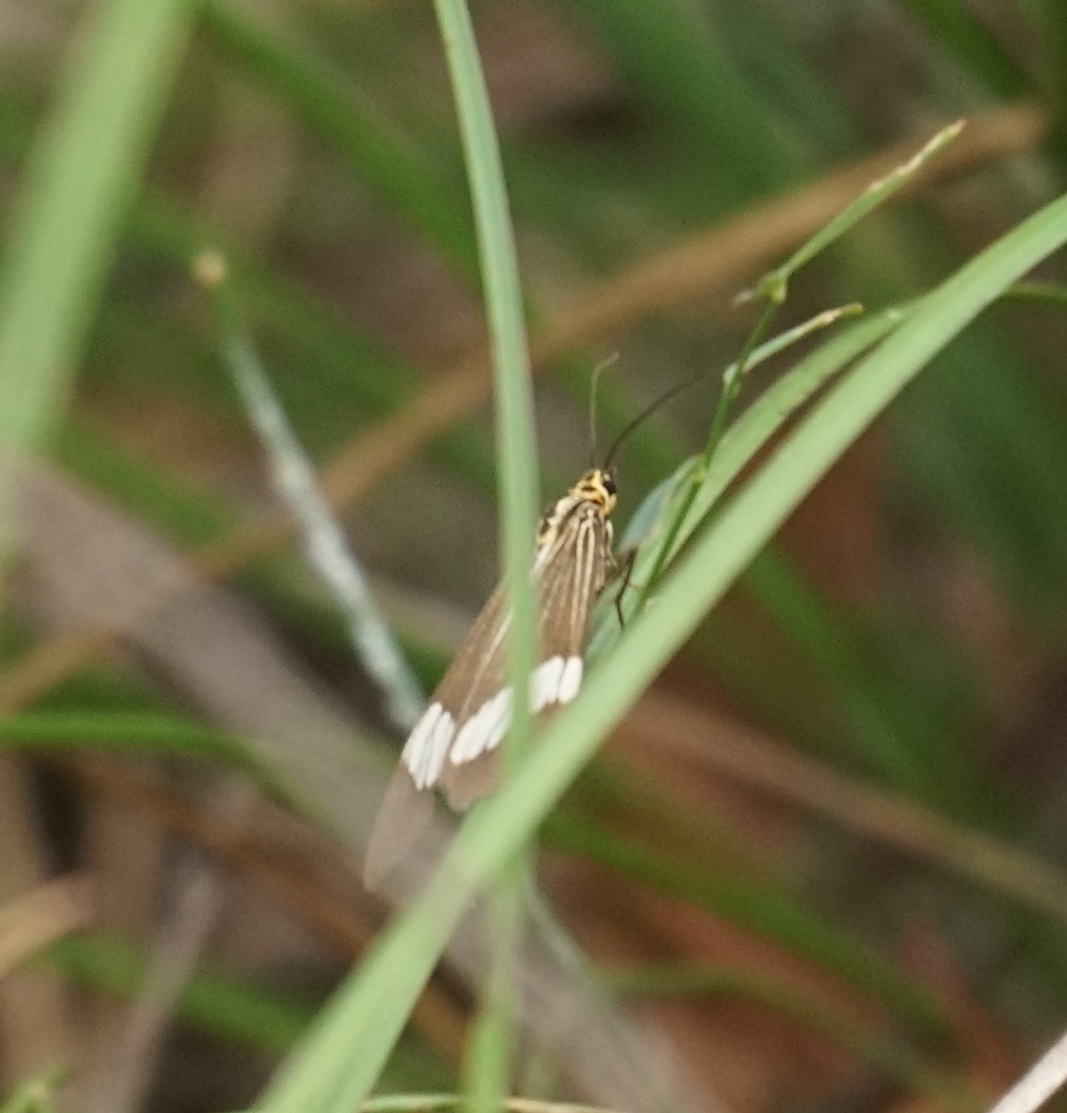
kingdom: Animalia
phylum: Arthropoda
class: Insecta
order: Lepidoptera
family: Erebidae
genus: Nyctemera
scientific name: Nyctemera baulus
